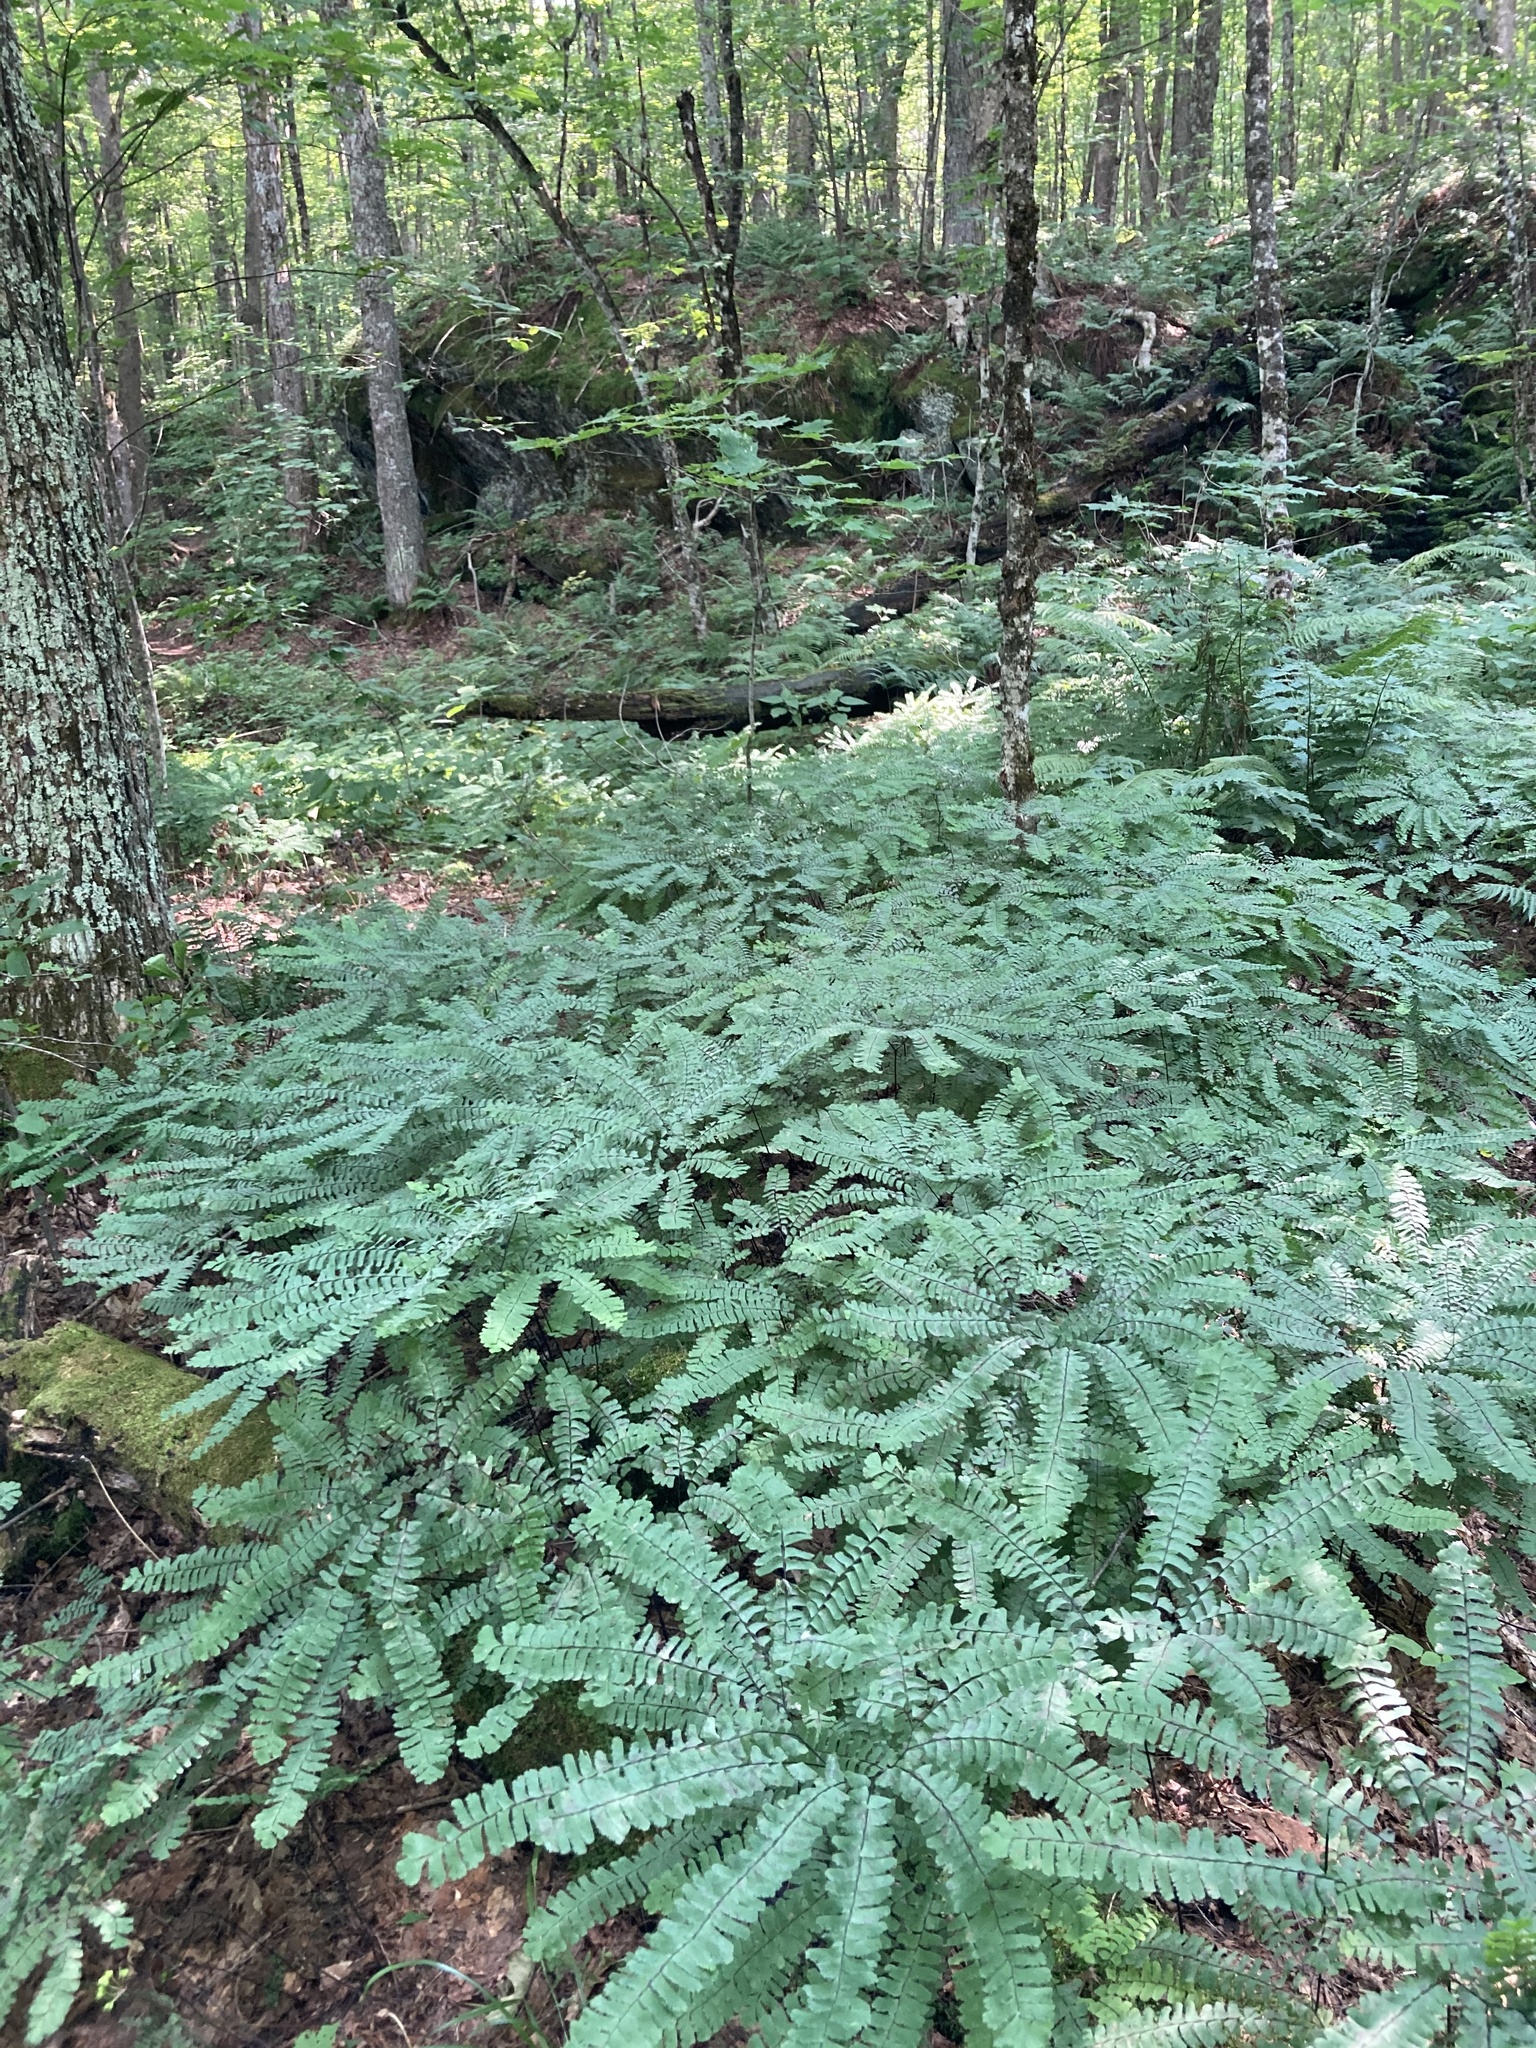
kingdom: Plantae
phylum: Tracheophyta
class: Polypodiopsida
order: Polypodiales
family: Pteridaceae
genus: Adiantum
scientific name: Adiantum pedatum
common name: Five-finger fern
